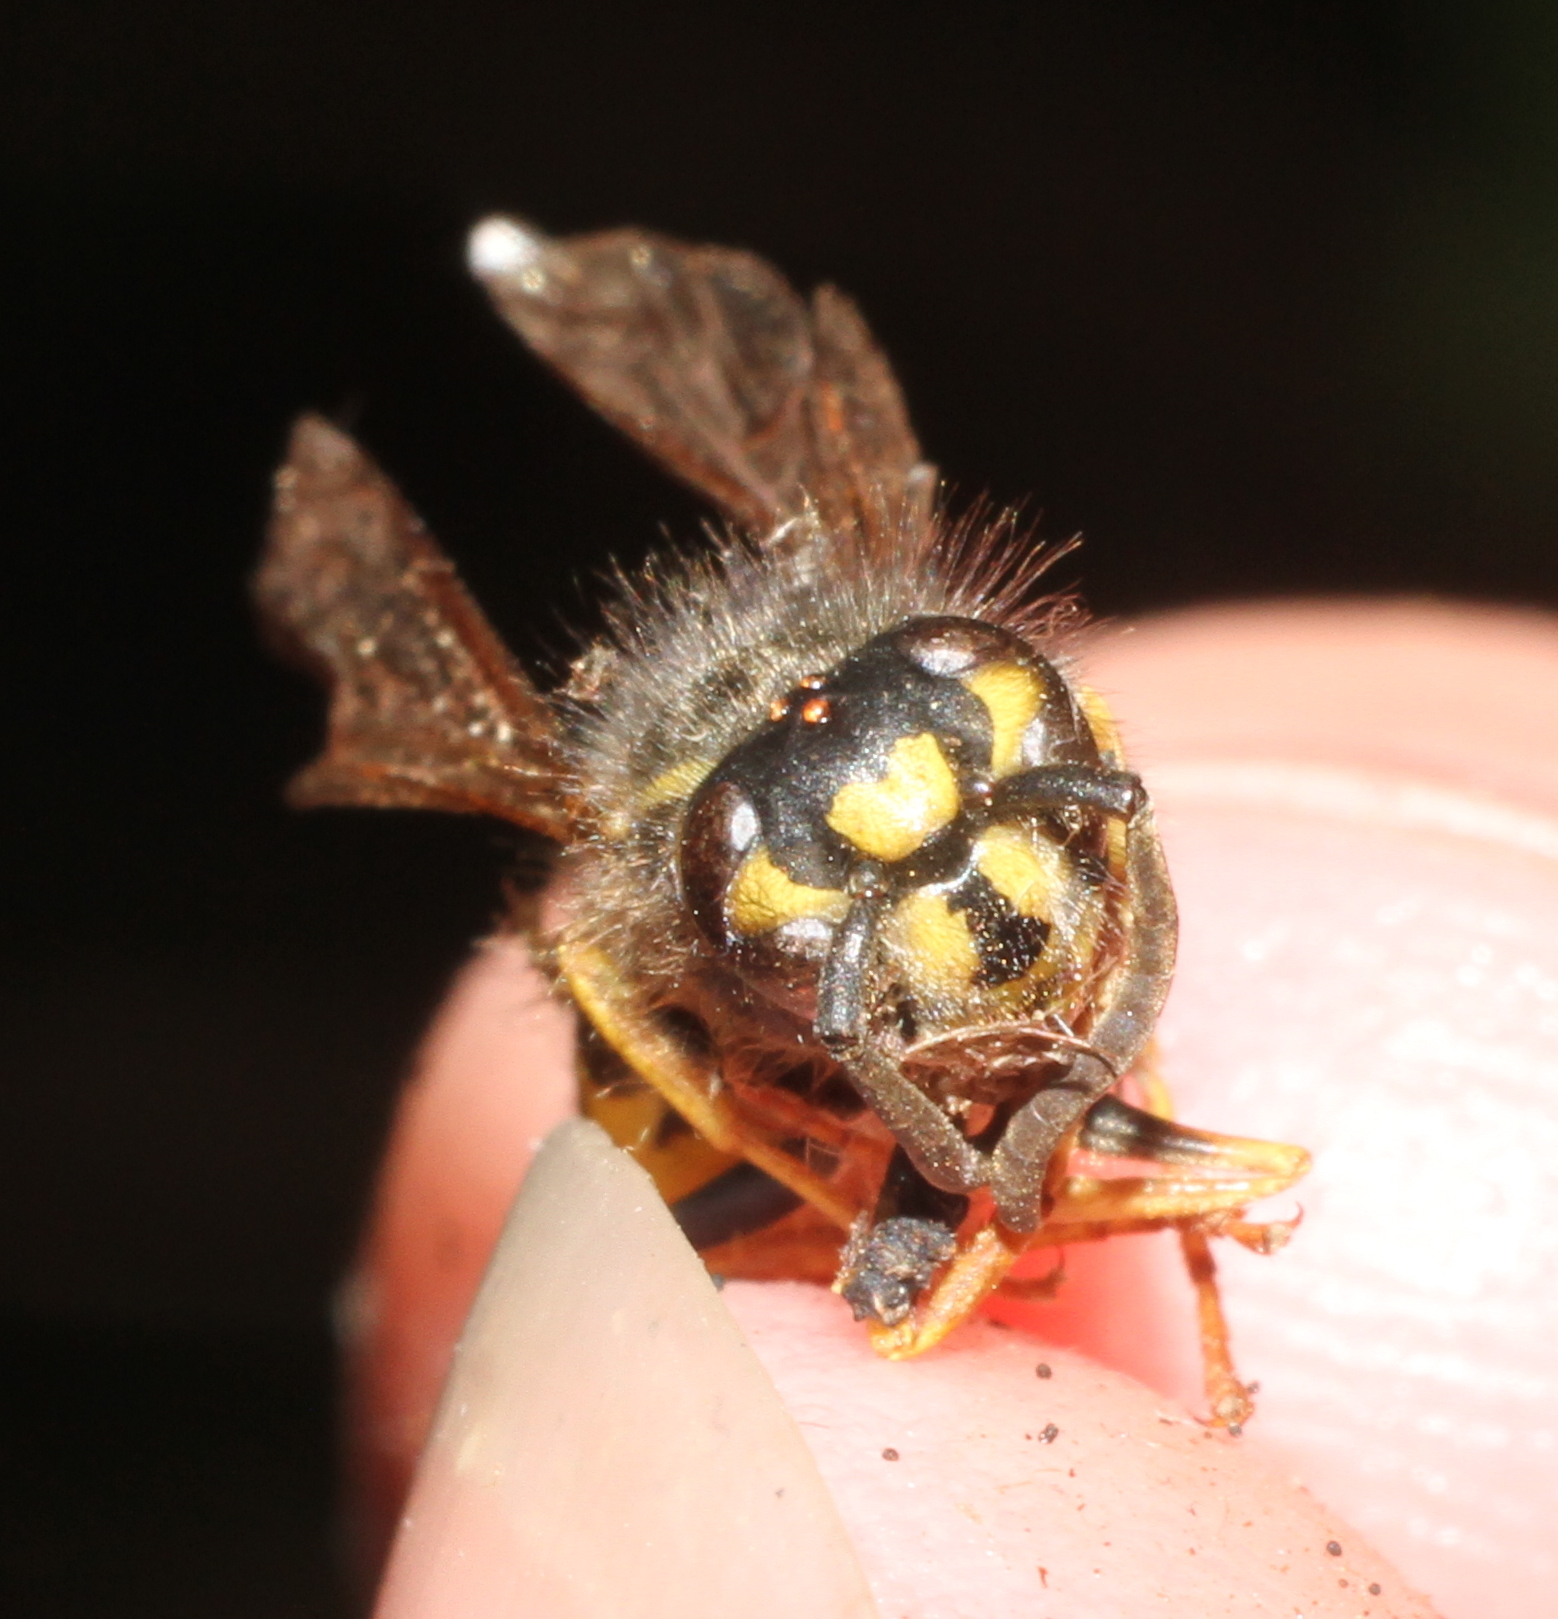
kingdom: Animalia
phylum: Arthropoda
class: Insecta
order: Hymenoptera
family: Vespidae
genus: Vespula
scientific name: Vespula vulgaris
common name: Common wasp
